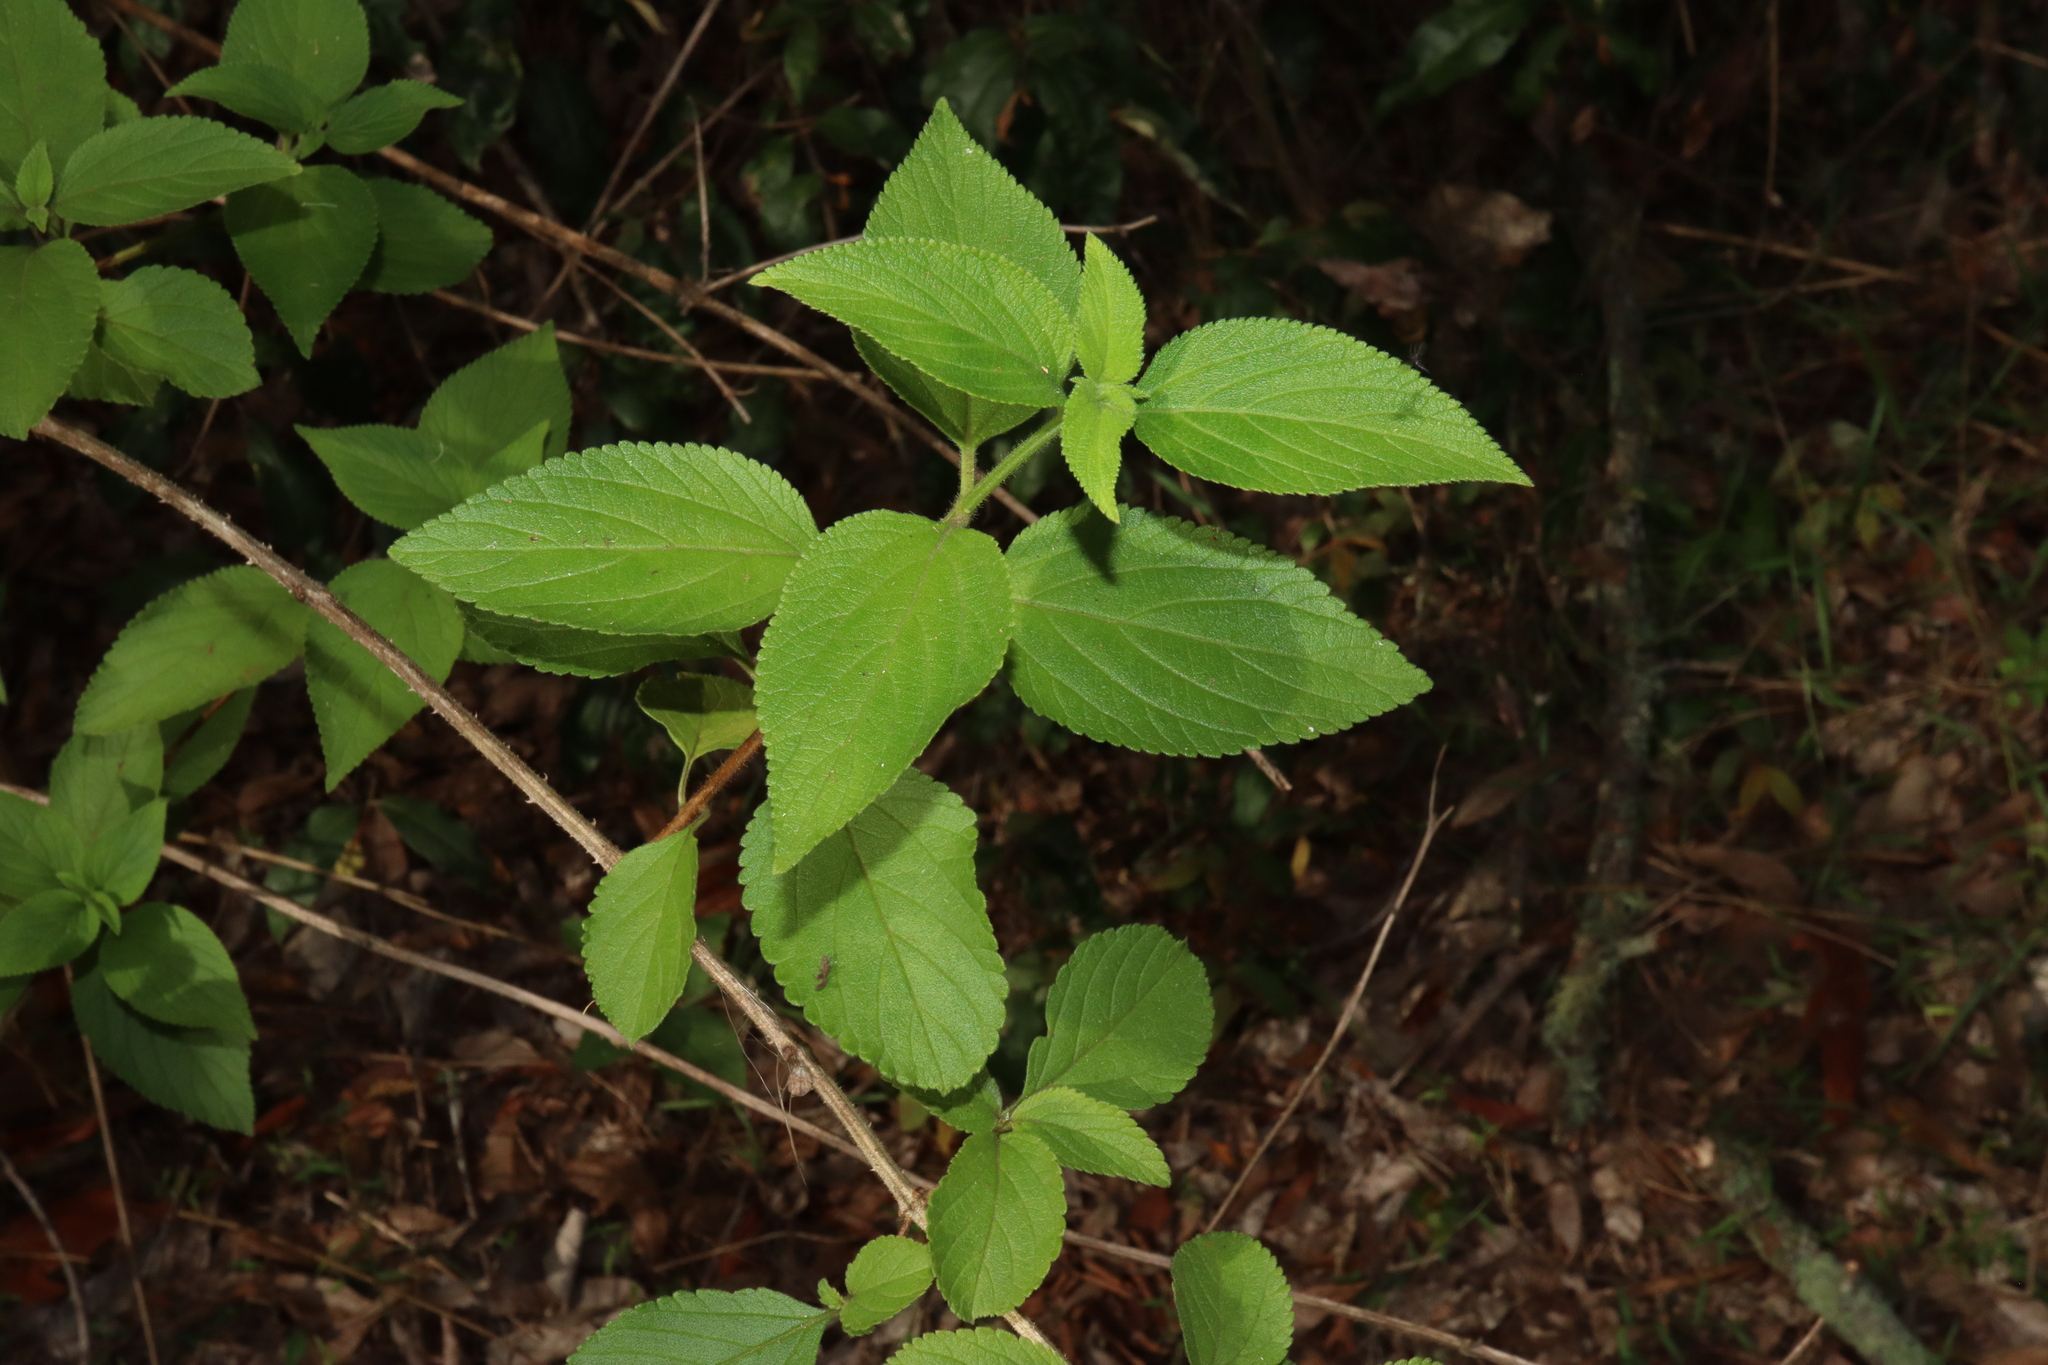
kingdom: Plantae
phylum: Tracheophyta
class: Magnoliopsida
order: Lamiales
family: Verbenaceae
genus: Lantana
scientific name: Lantana camara
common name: Lantana
